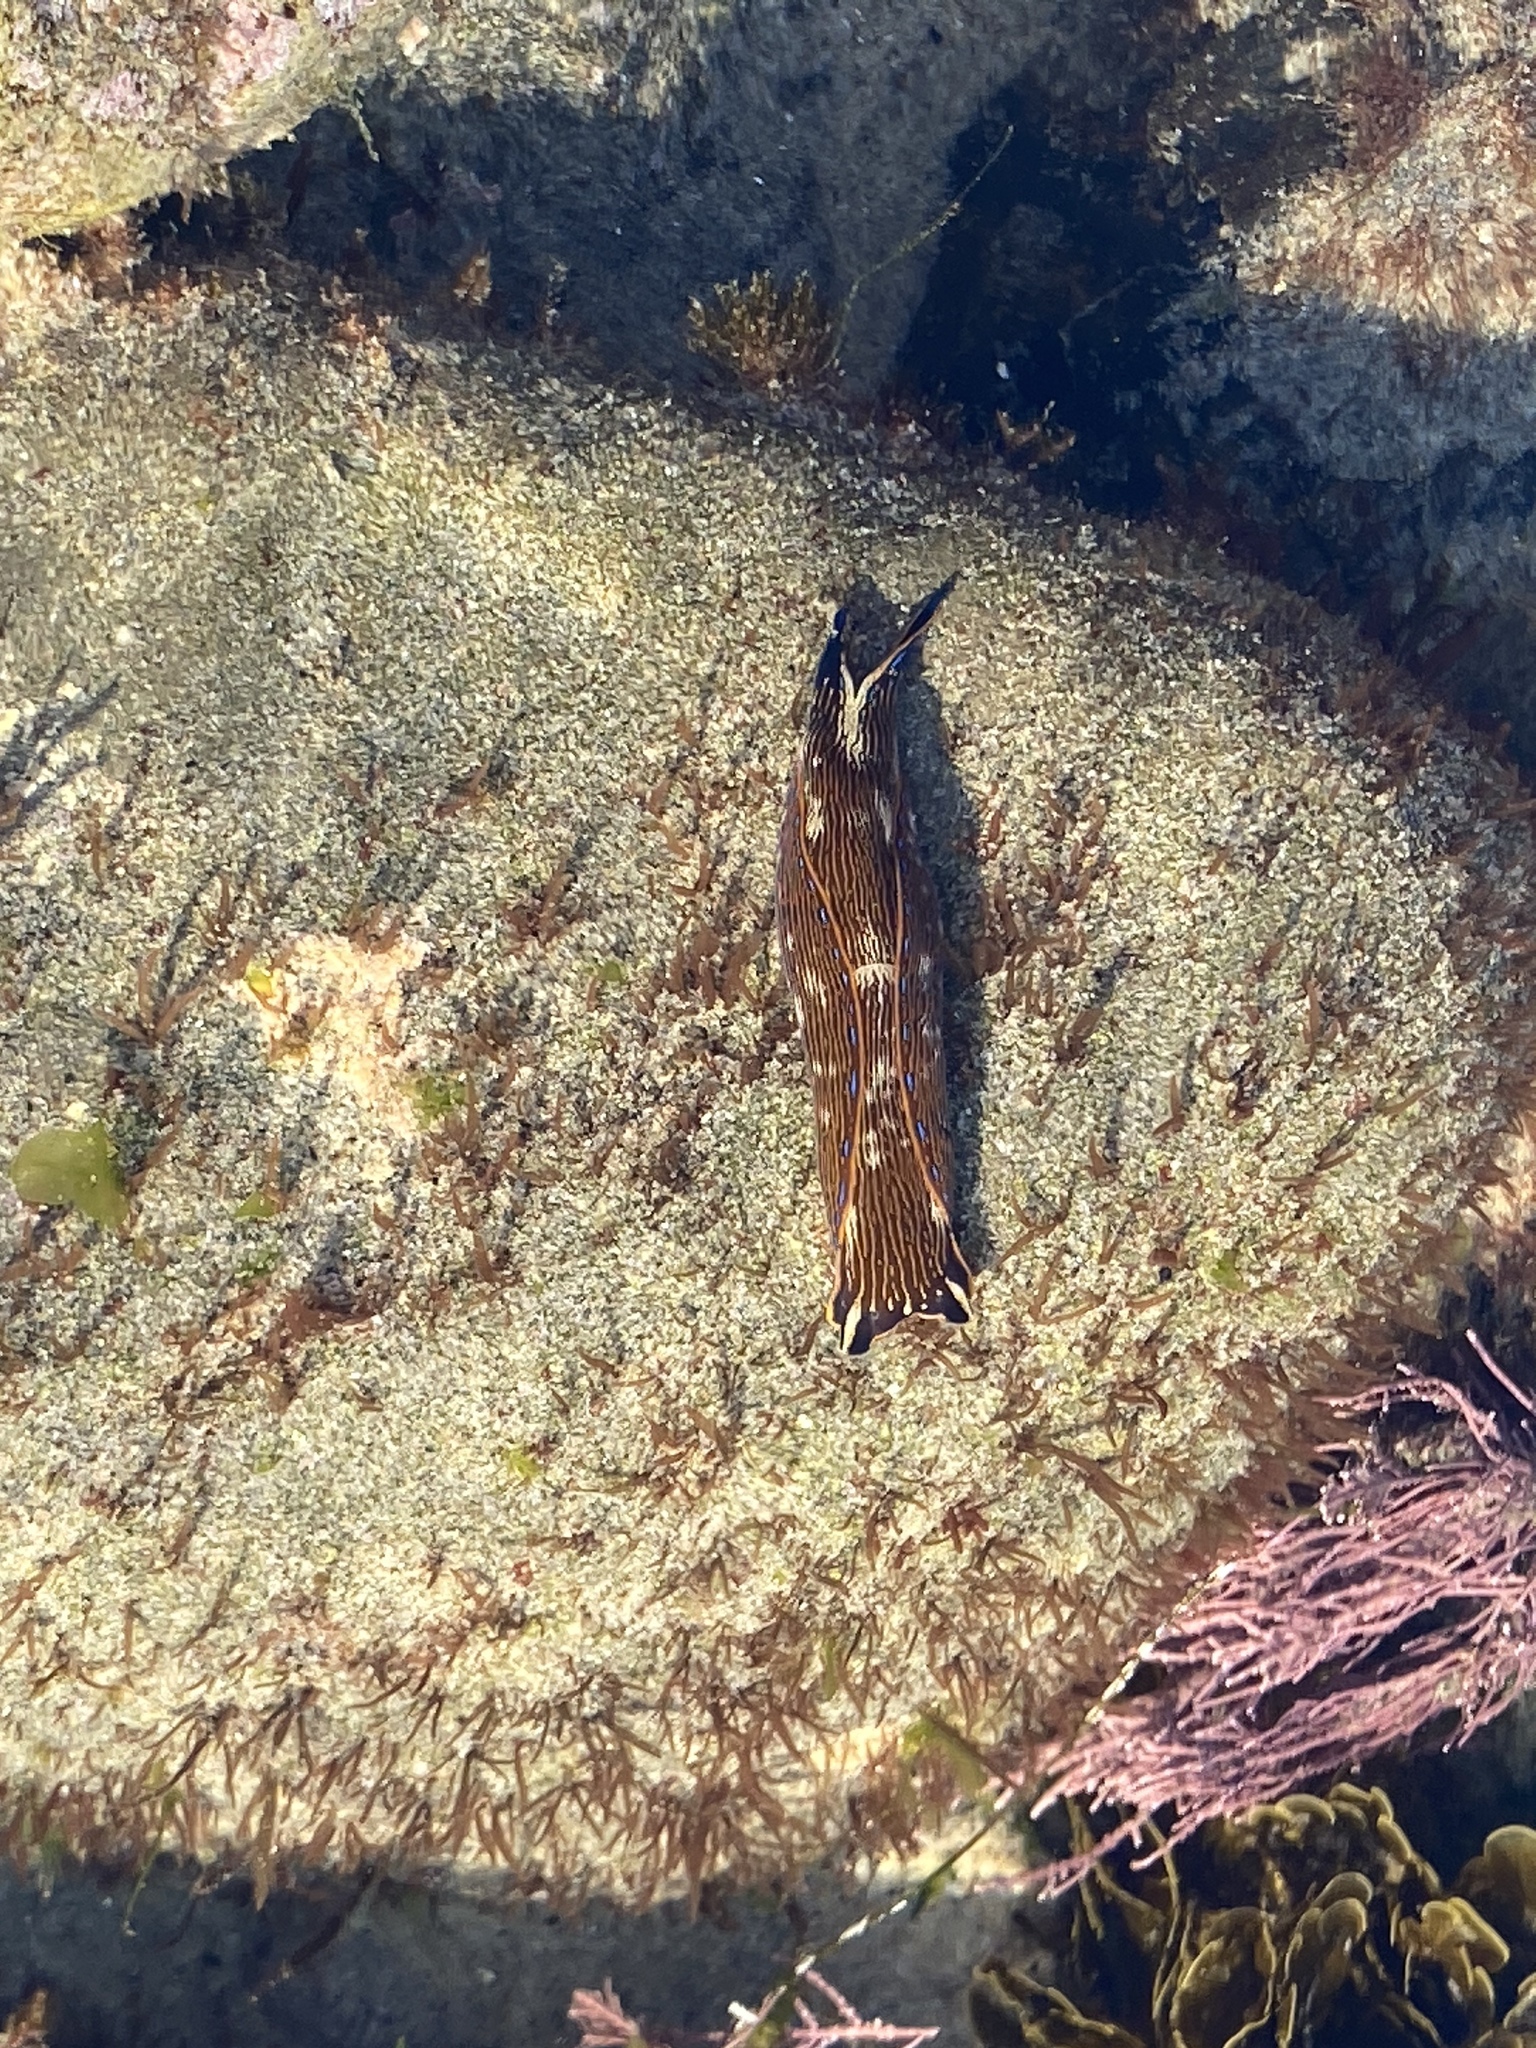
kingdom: Animalia
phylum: Mollusca
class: Gastropoda
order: Cephalaspidea
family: Aglajidae
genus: Navanax
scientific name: Navanax inermis
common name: California aglaja
